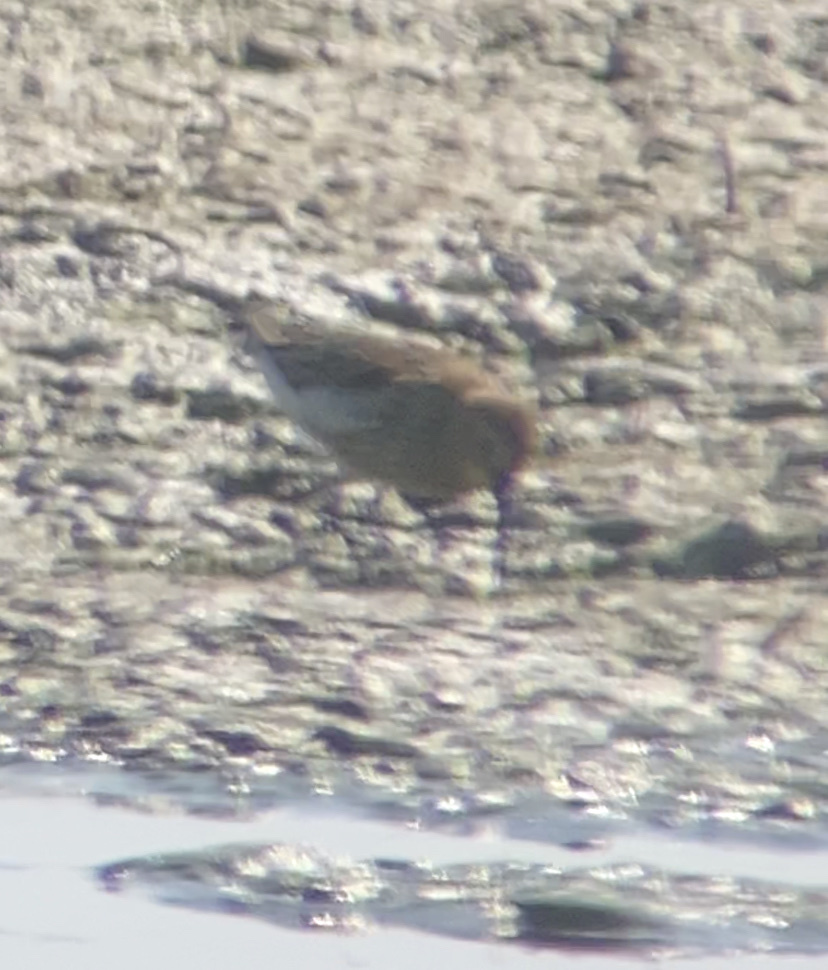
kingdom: Animalia
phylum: Chordata
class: Aves
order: Charadriiformes
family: Scolopacidae
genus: Calidris
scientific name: Calidris alpina
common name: Dunlin
